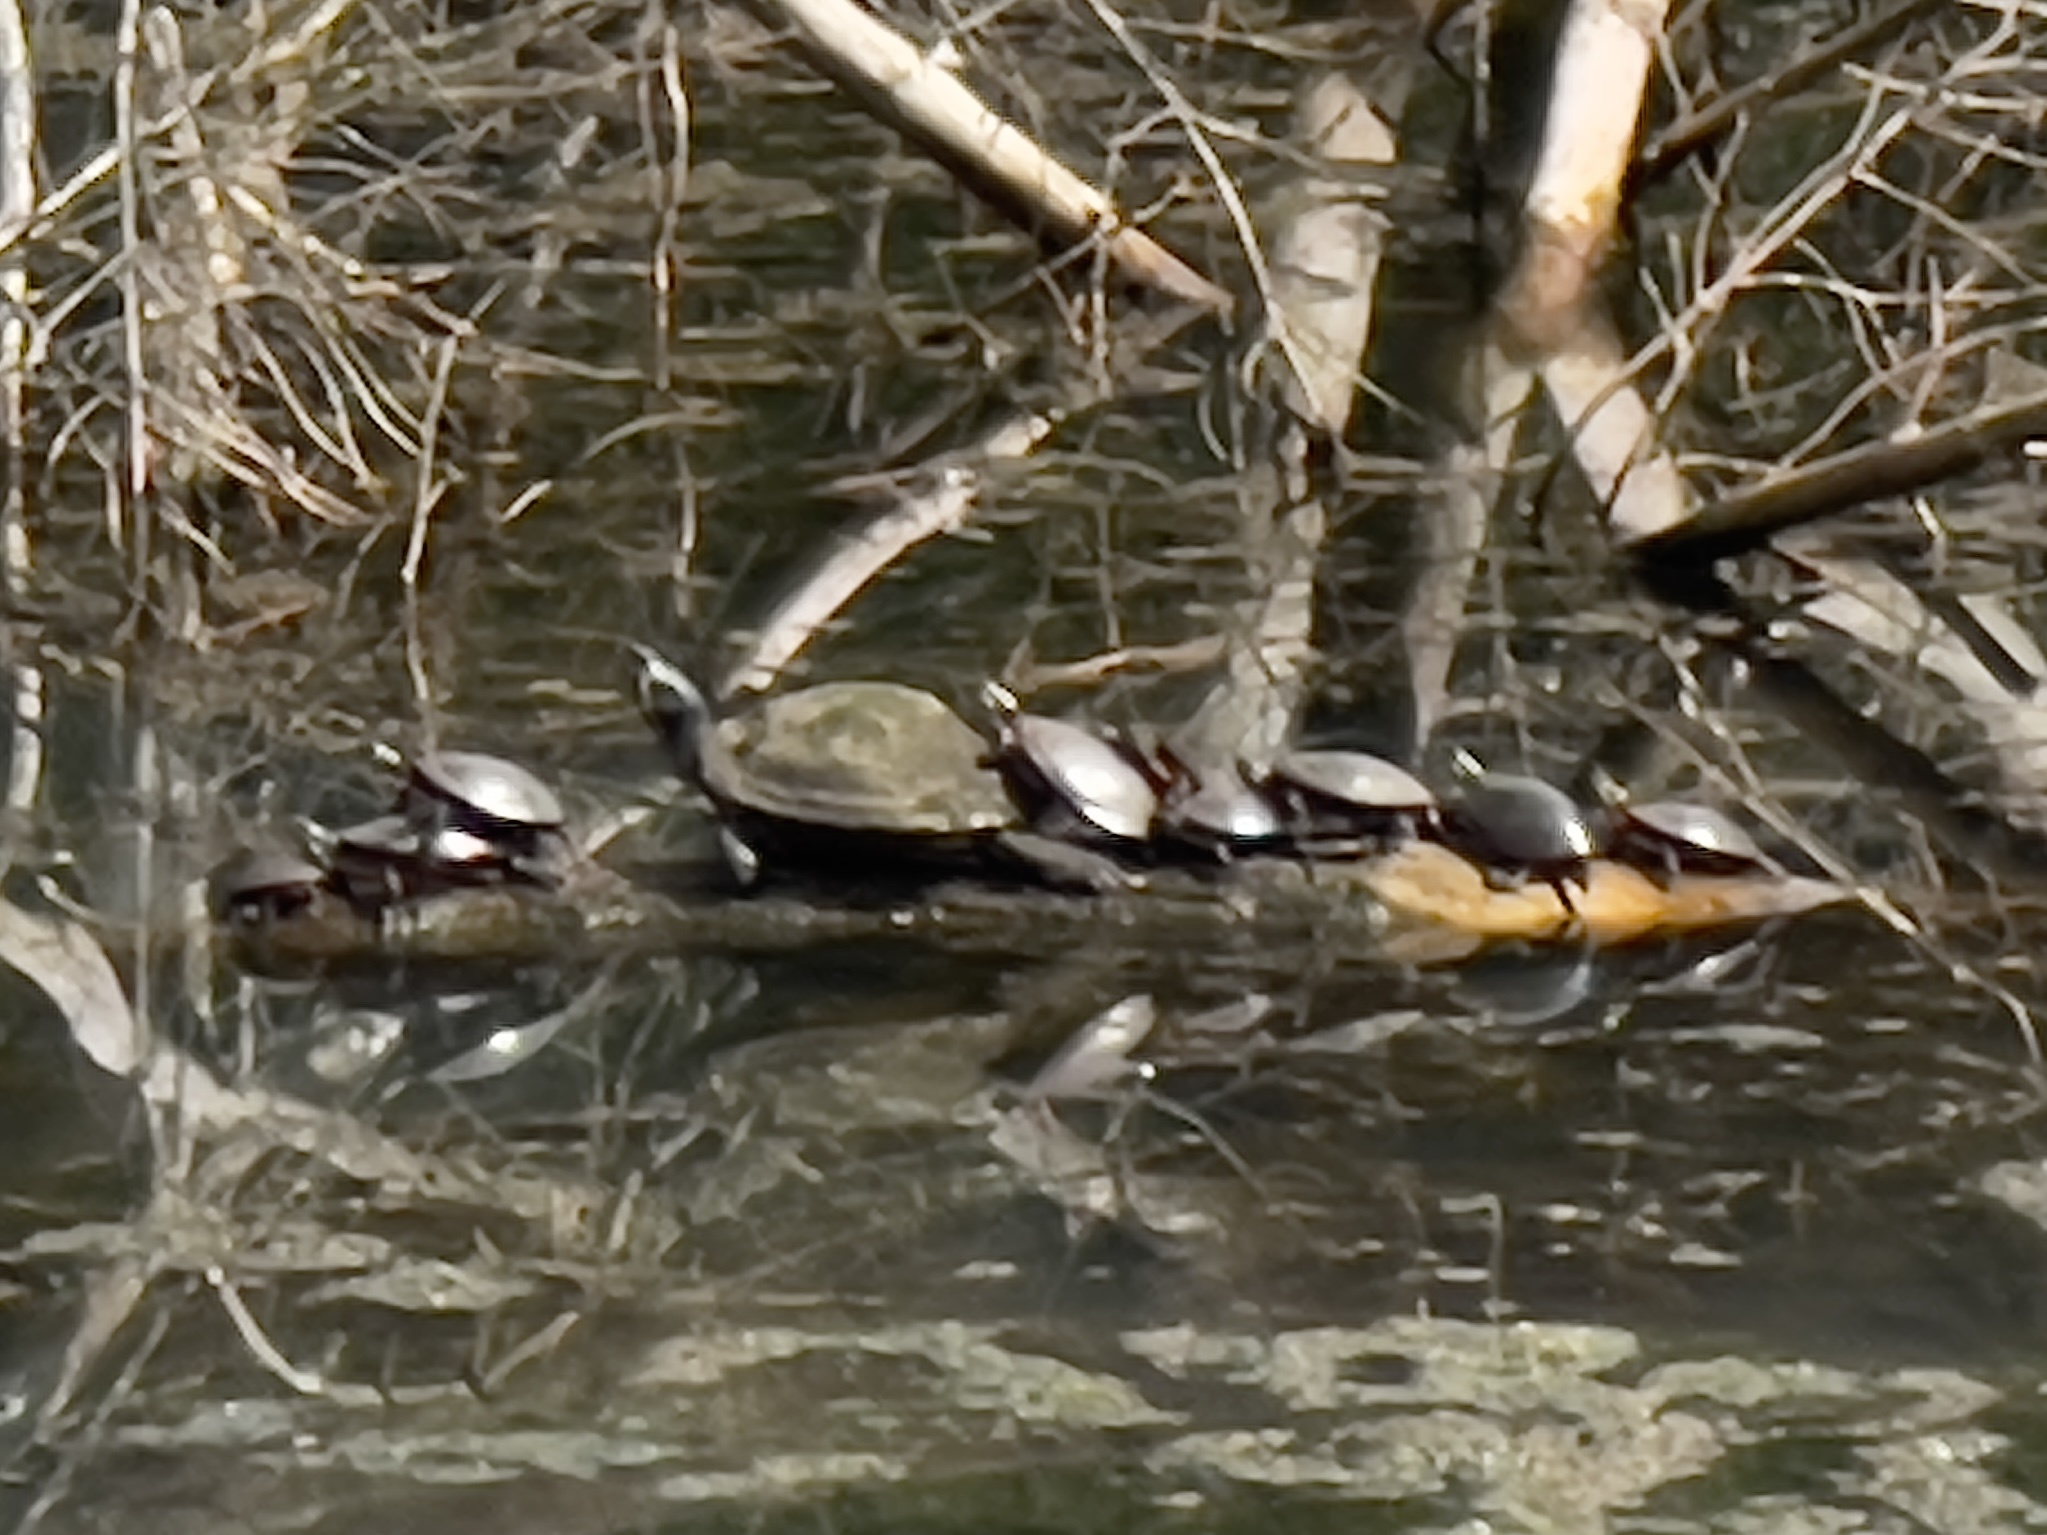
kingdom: Animalia
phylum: Chordata
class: Testudines
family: Emydidae
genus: Trachemys
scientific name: Trachemys scripta
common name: Slider
